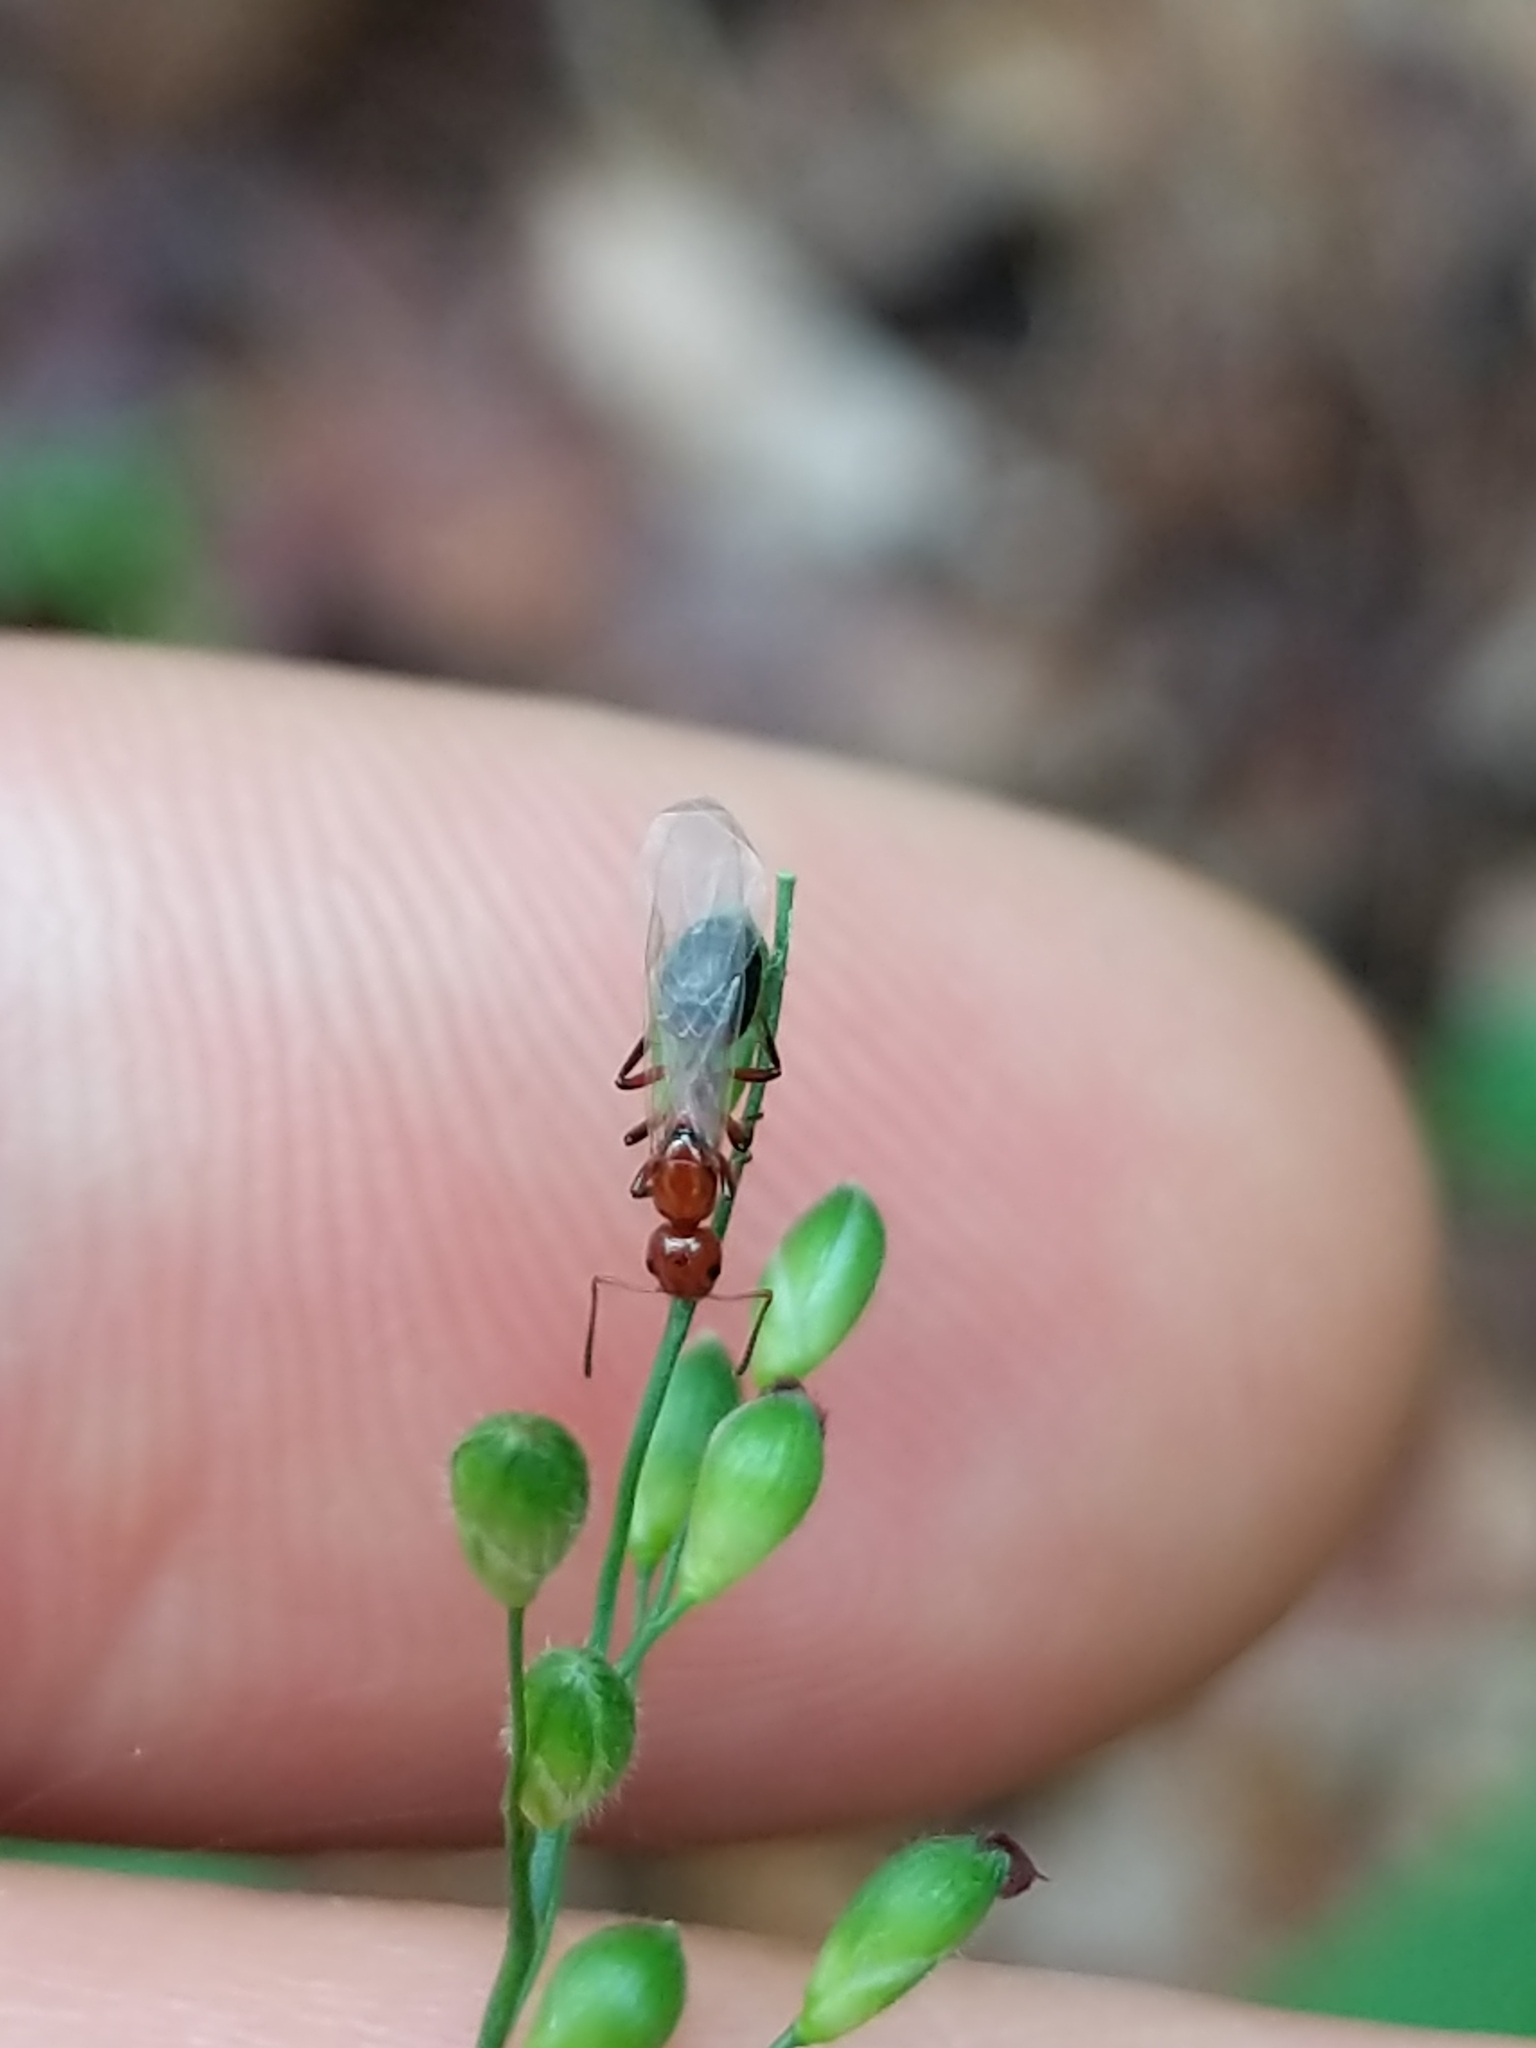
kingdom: Animalia
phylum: Arthropoda
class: Insecta
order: Hymenoptera
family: Formicidae
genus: Dolichoderus
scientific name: Dolichoderus mariae
